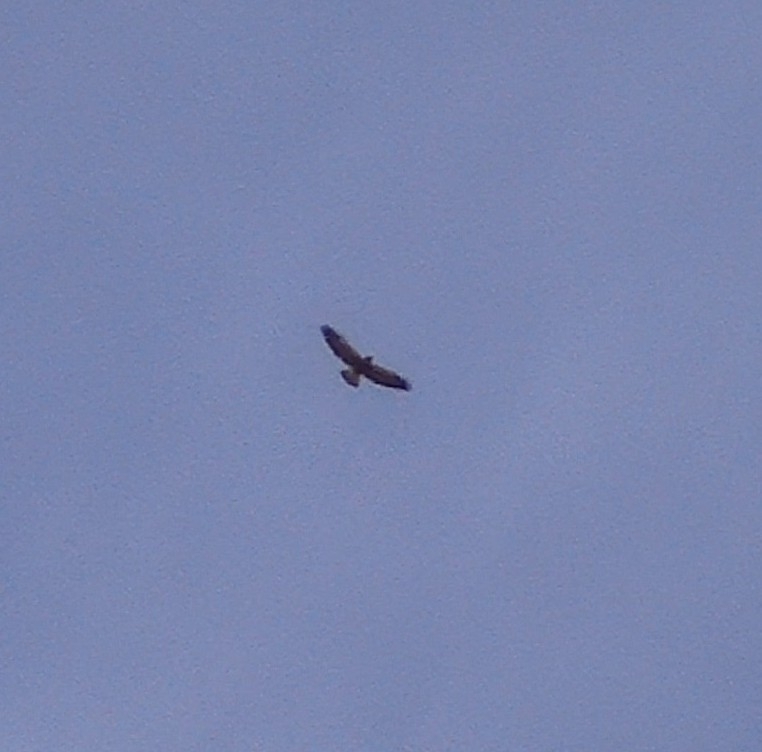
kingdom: Animalia
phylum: Chordata
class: Aves
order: Accipitriformes
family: Accipitridae
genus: Buteo
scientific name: Buteo swainsoni
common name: Swainson's hawk
